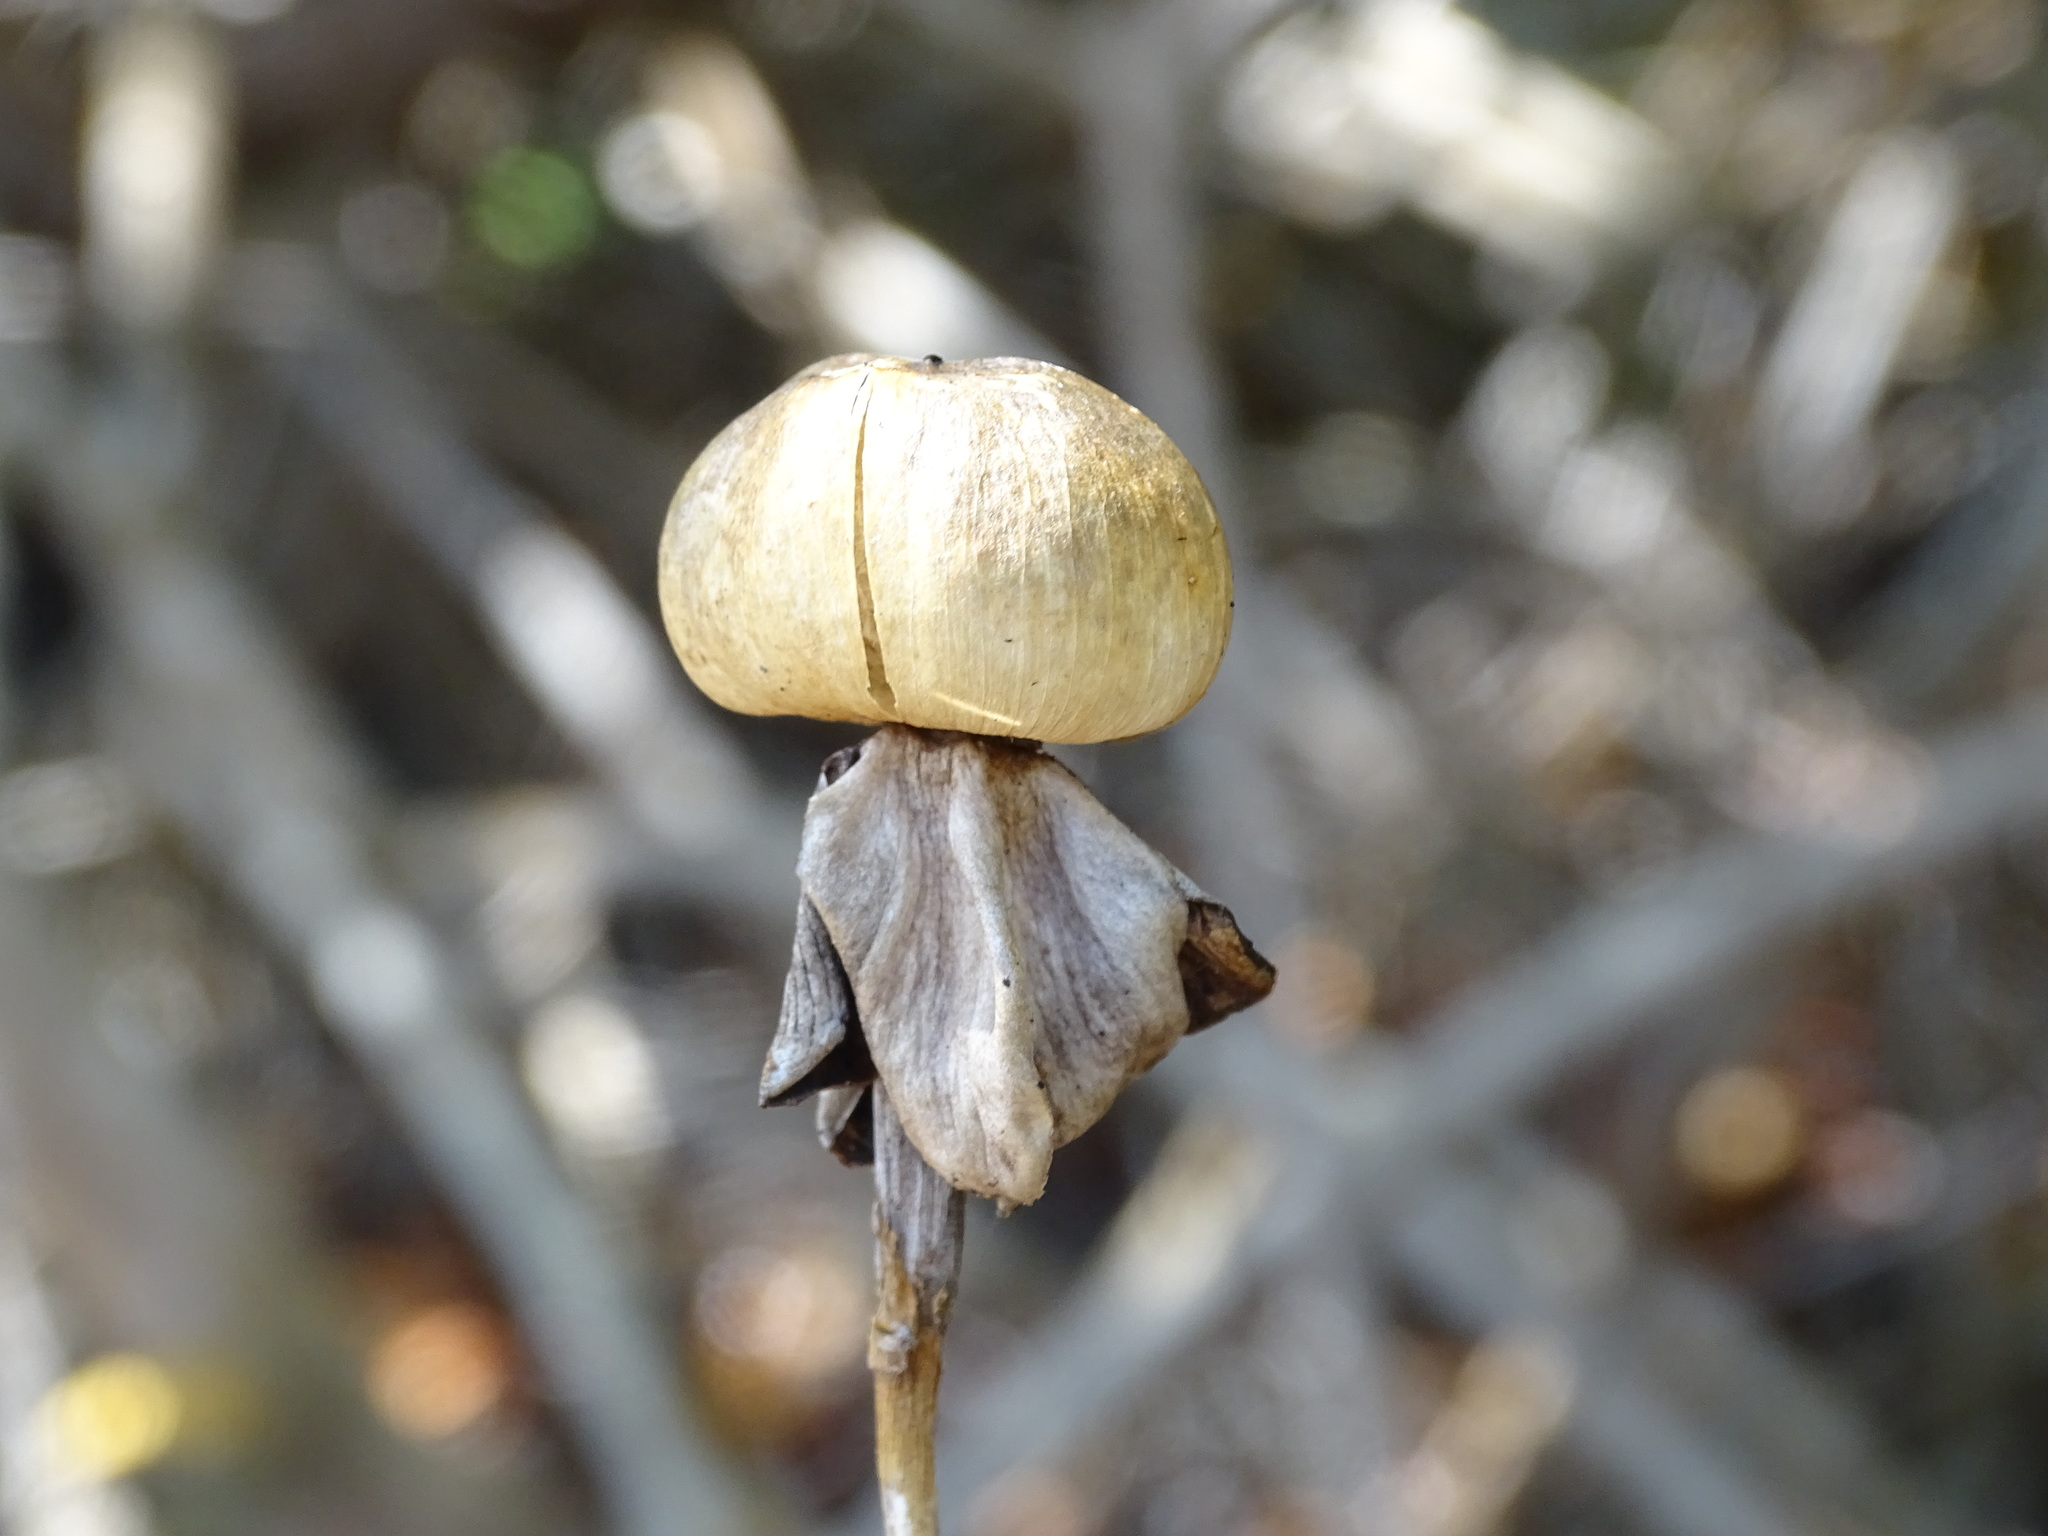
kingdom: Plantae
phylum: Tracheophyta
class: Magnoliopsida
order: Solanales
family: Convolvulaceae
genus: Ipomoea
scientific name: Ipomoea violacea
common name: Beach moonflower
